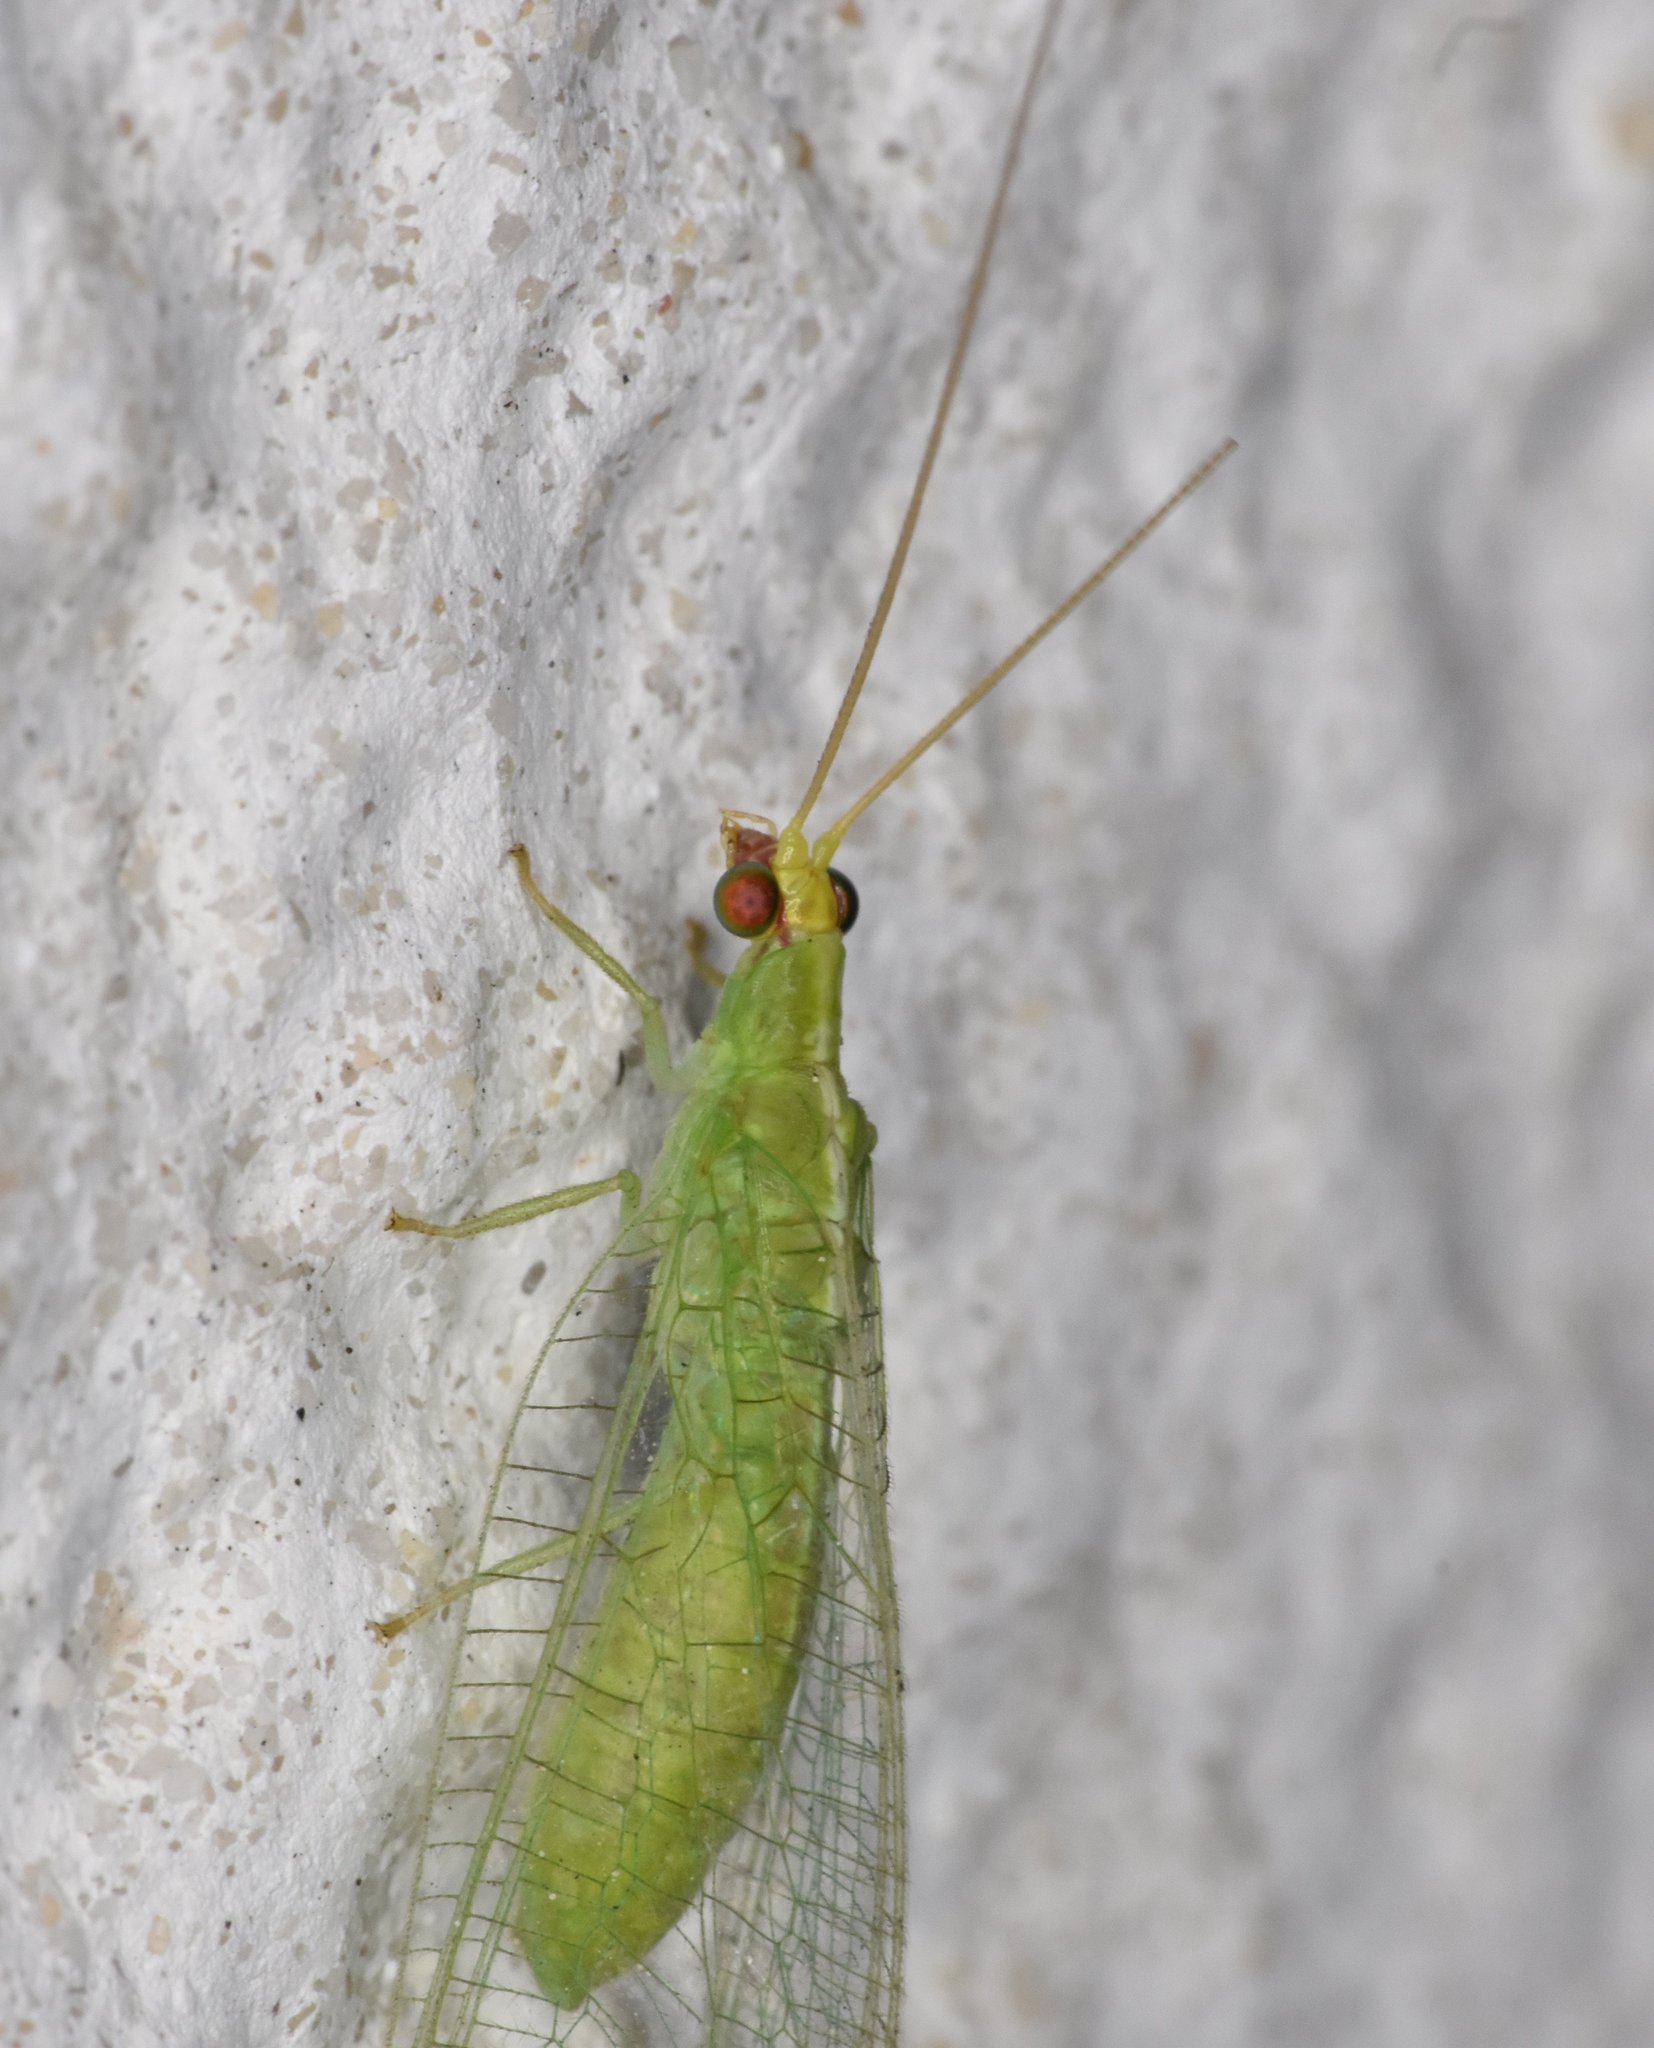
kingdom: Animalia
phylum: Arthropoda
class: Insecta
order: Neuroptera
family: Chrysopidae
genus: Chrysopodes
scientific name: Chrysopodes collaris
